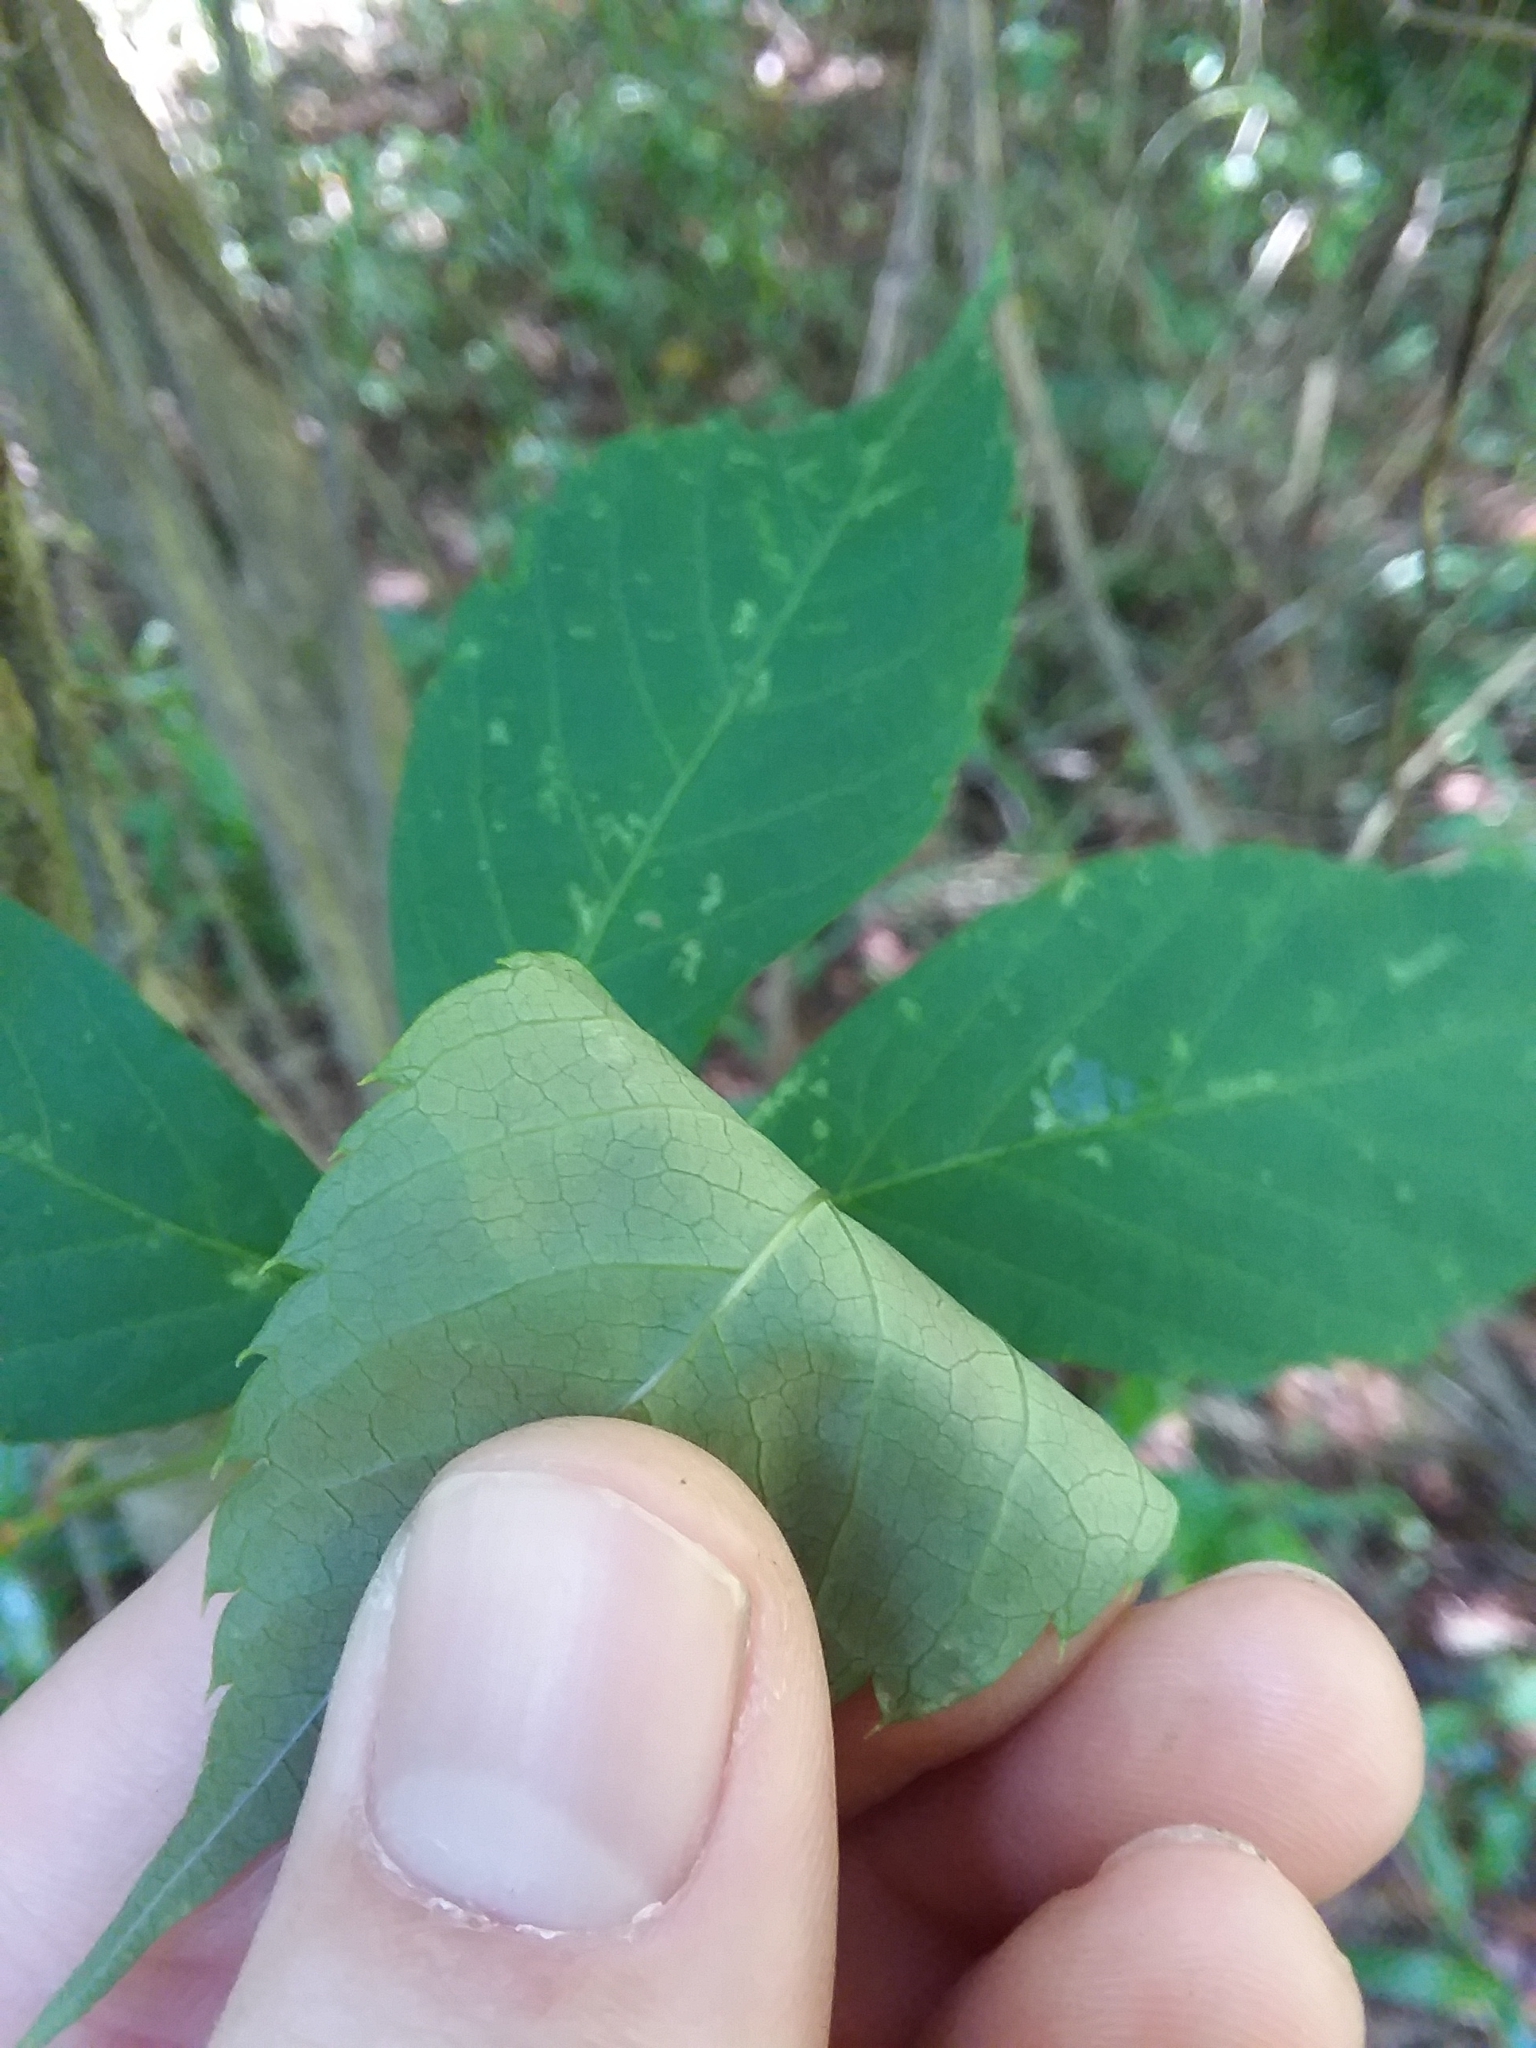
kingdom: Plantae
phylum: Tracheophyta
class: Magnoliopsida
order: Vitales
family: Vitaceae
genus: Parthenocissus
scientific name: Parthenocissus quinquefolia
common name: Virginia-creeper
